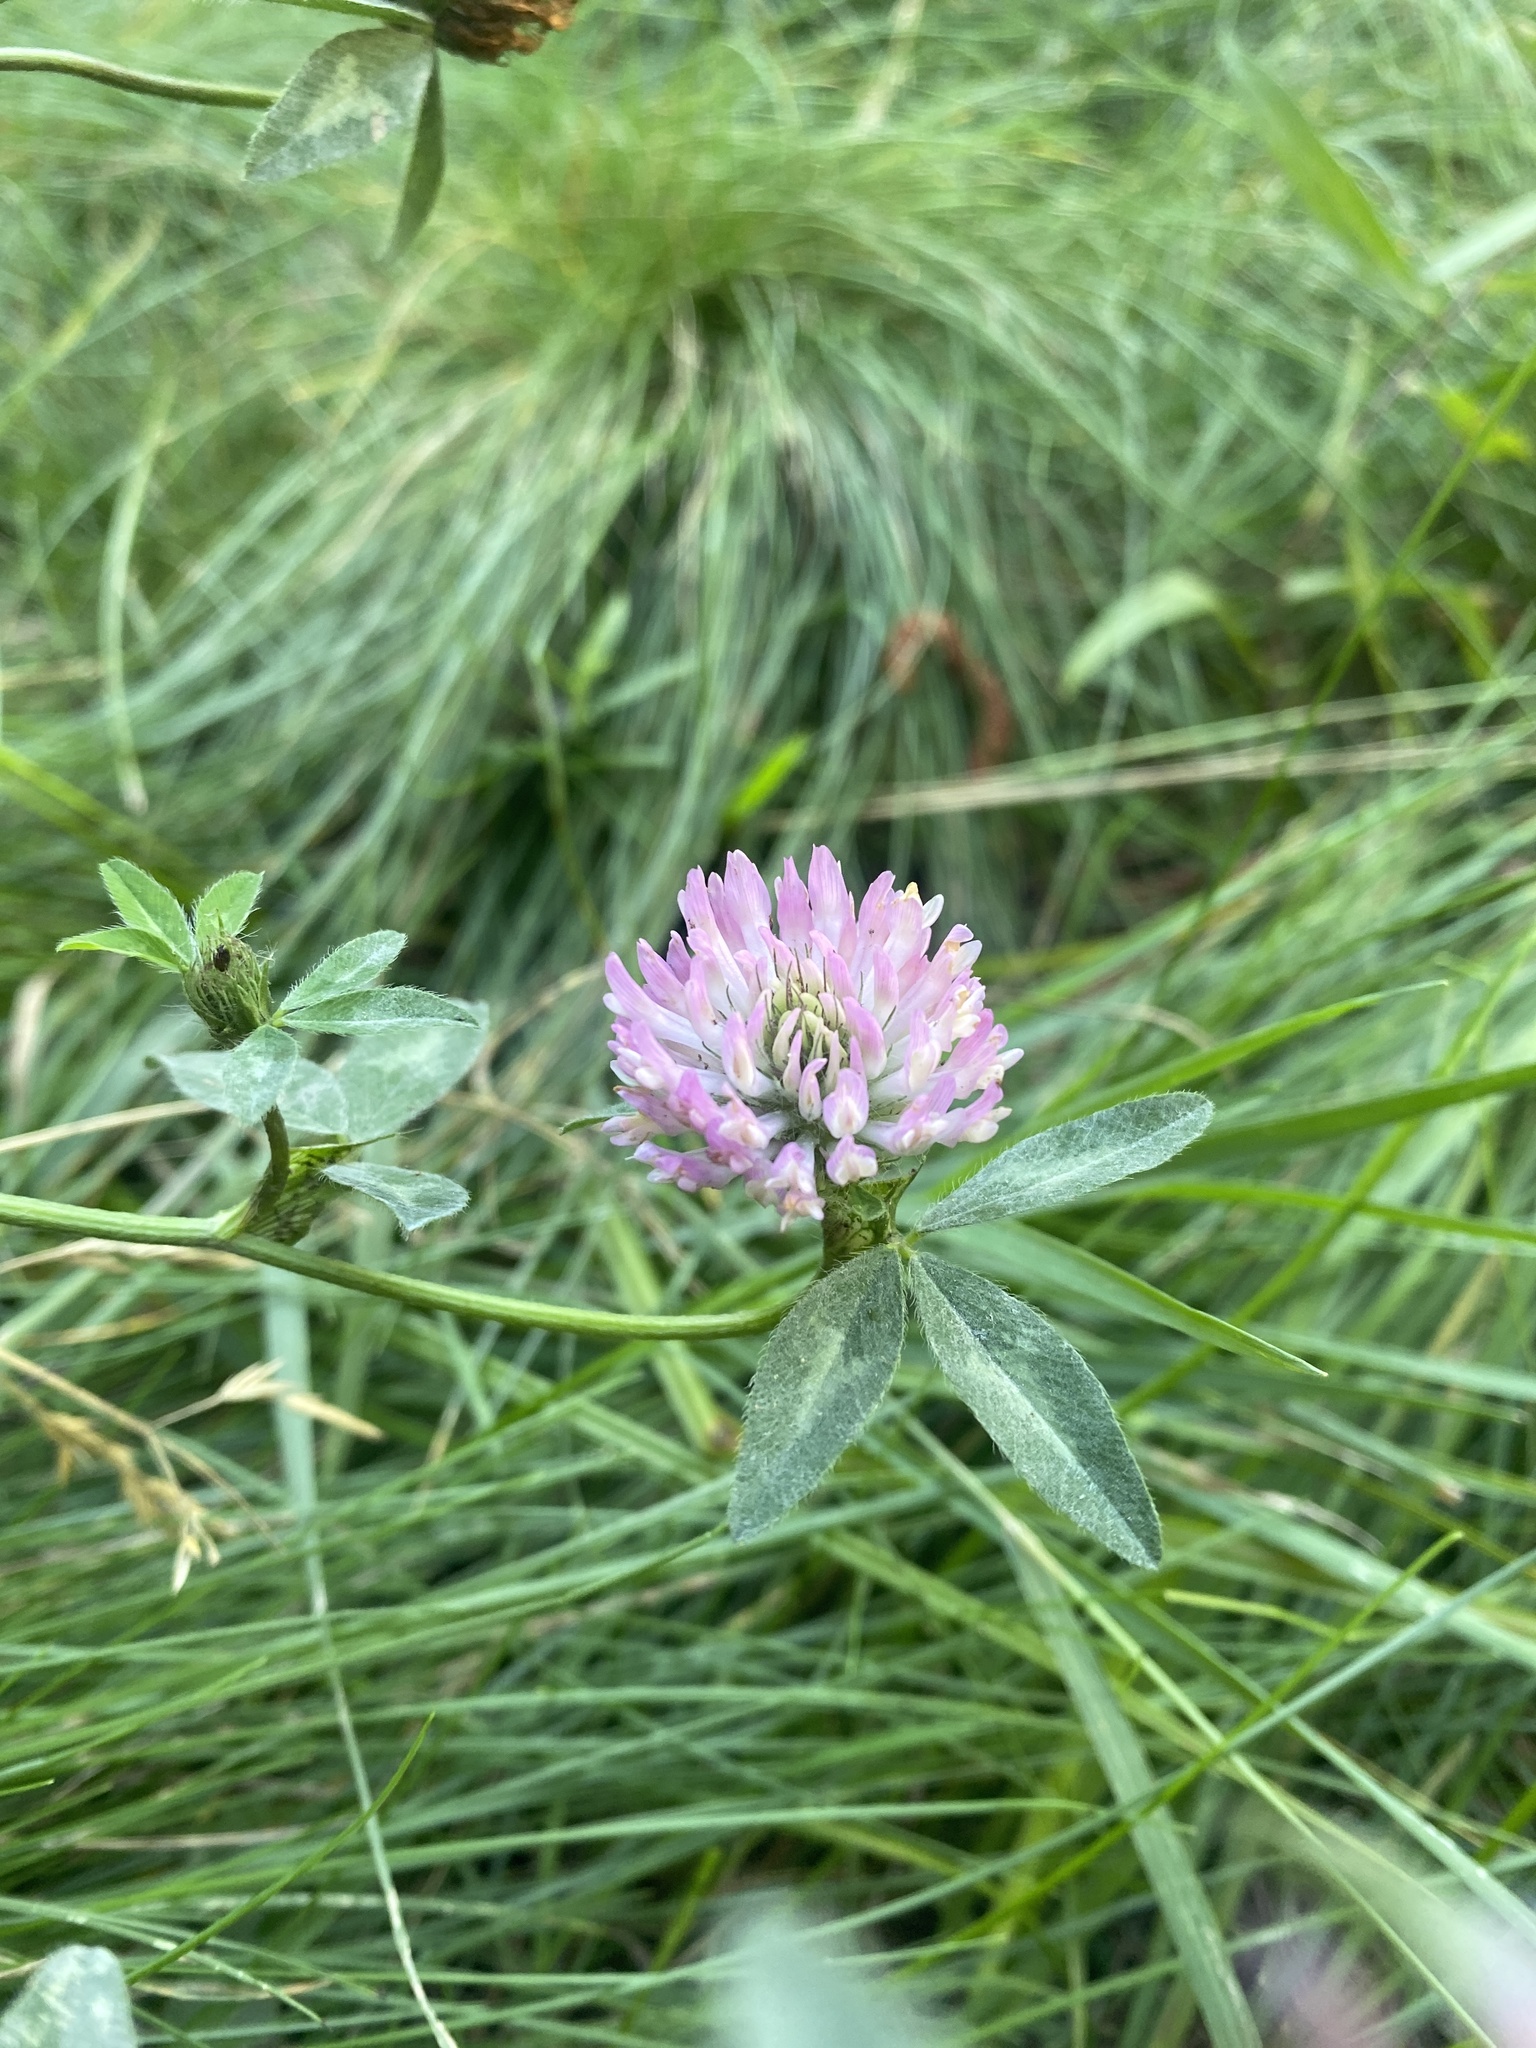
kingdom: Plantae
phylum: Tracheophyta
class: Magnoliopsida
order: Fabales
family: Fabaceae
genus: Trifolium
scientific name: Trifolium pratense
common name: Red clover
